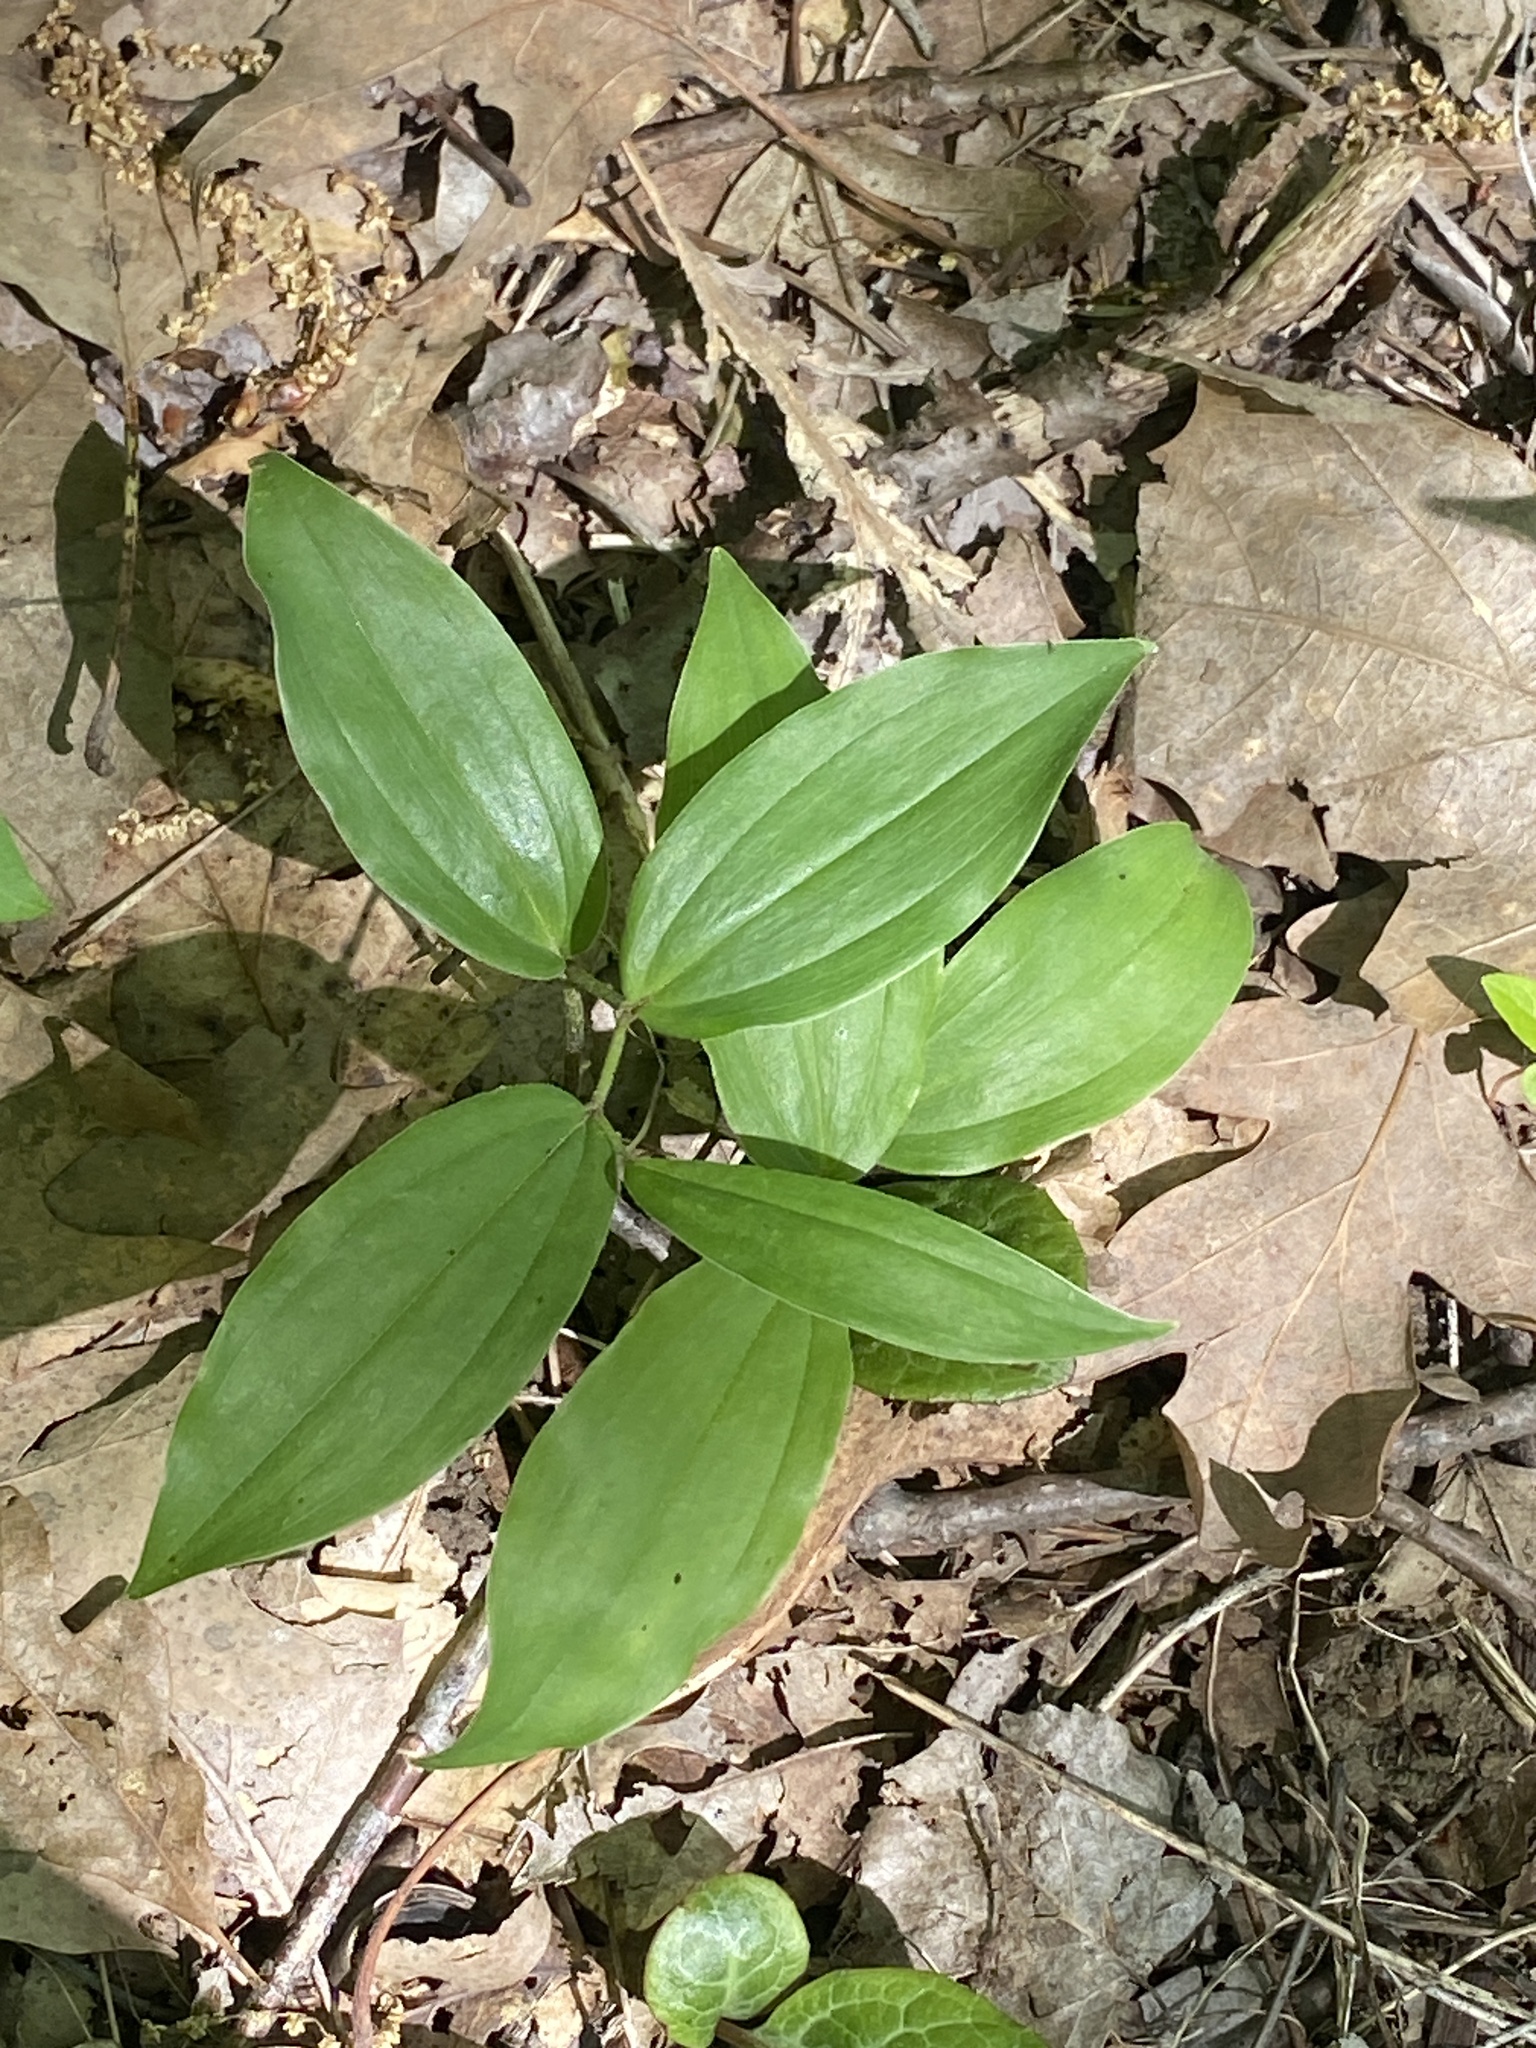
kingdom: Plantae
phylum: Tracheophyta
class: Liliopsida
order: Asparagales
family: Asparagaceae
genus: Maianthemum
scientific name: Maianthemum racemosum
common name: False spikenard
